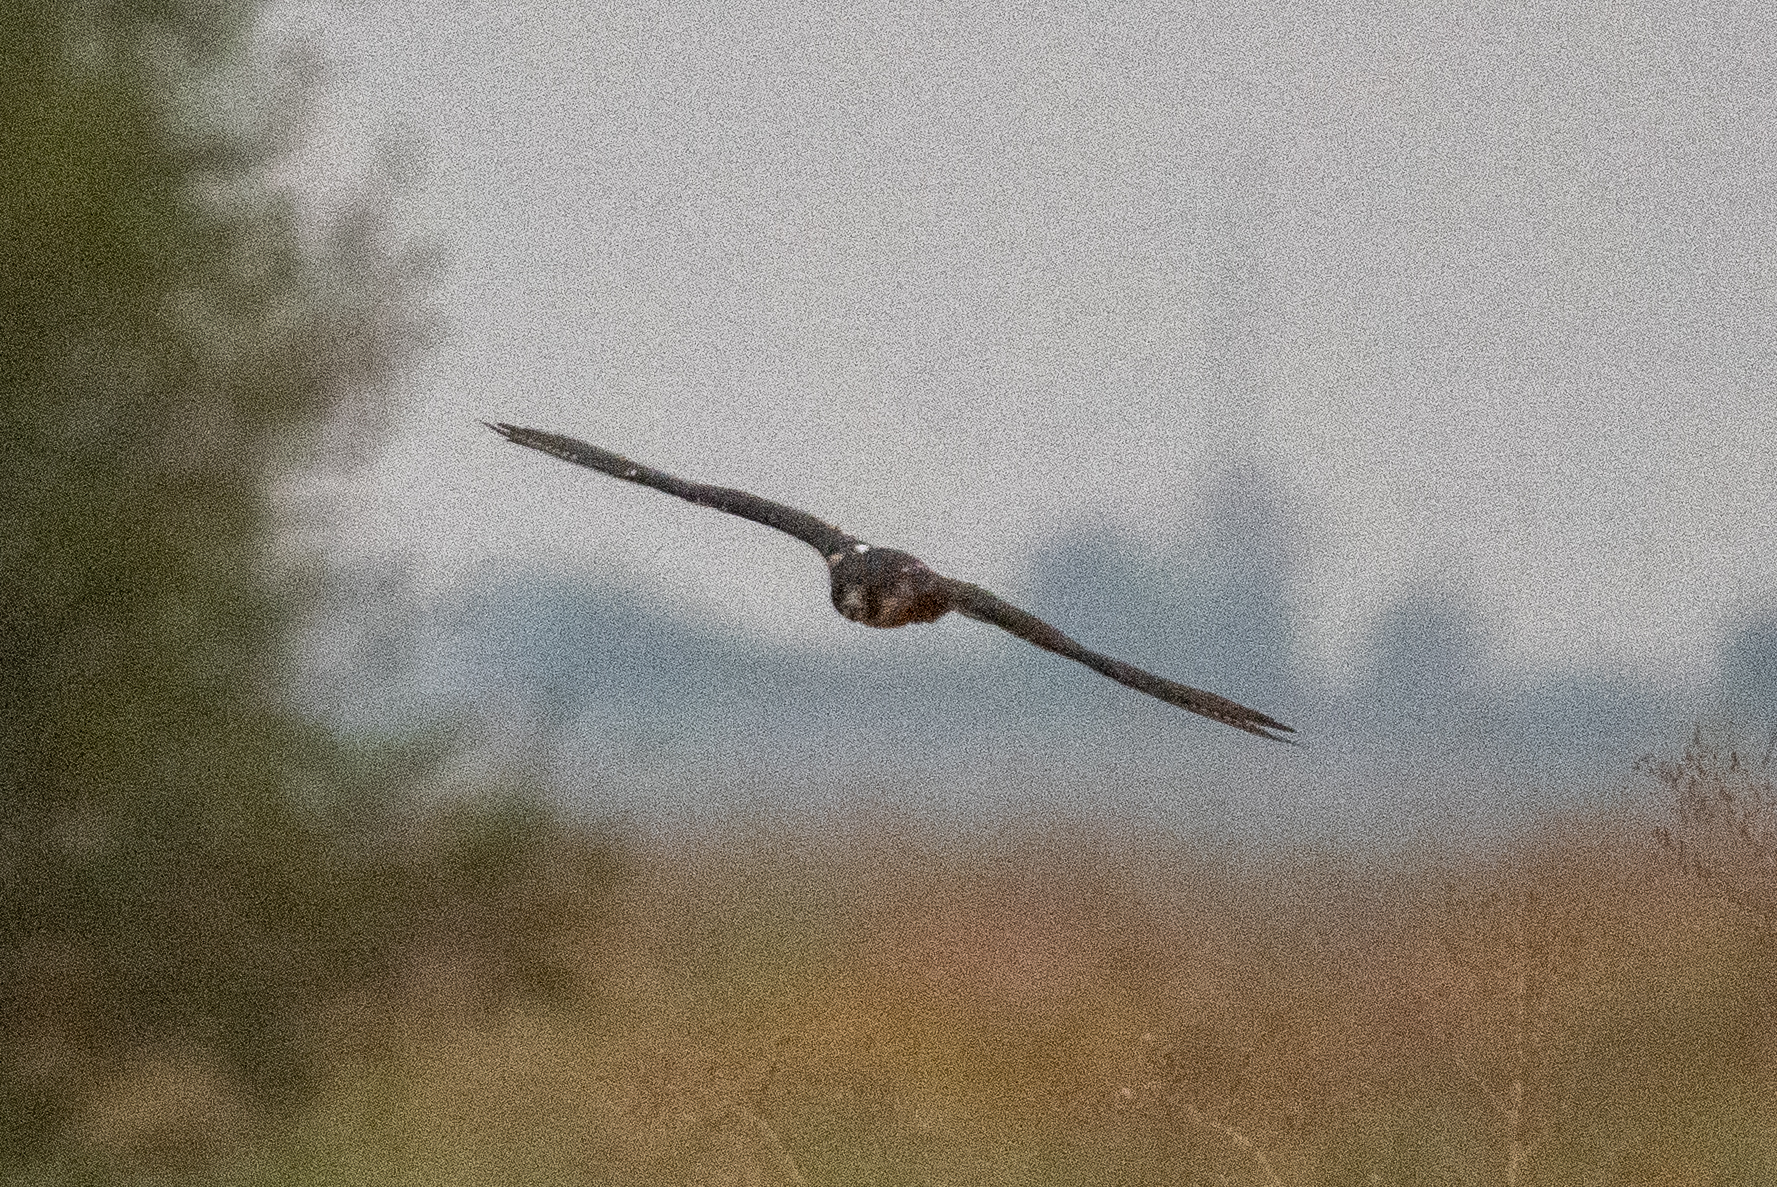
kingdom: Animalia
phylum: Chordata
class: Aves
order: Falconiformes
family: Falconidae
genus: Falco
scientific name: Falco peregrinus
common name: Peregrine falcon
